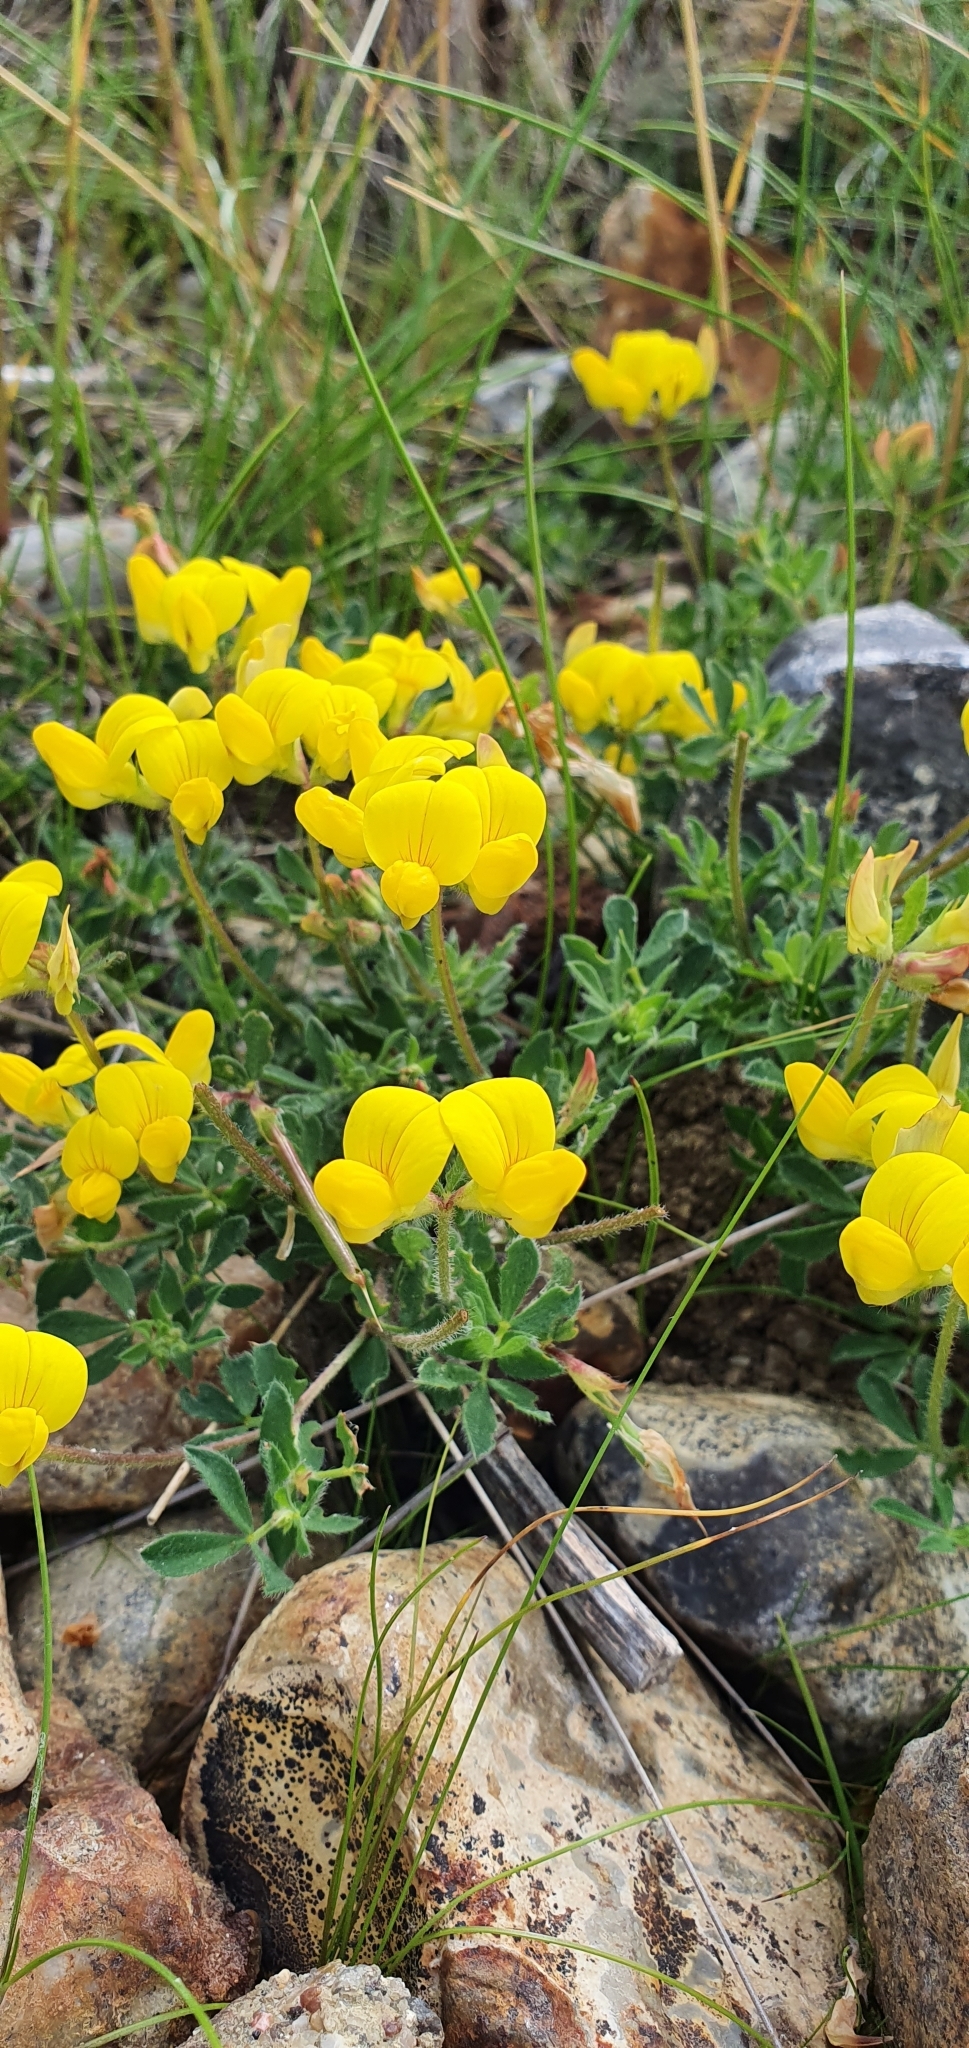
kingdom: Plantae
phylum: Tracheophyta
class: Magnoliopsida
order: Fabales
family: Fabaceae
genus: Lotus
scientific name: Lotus corniculatus
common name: Common bird's-foot-trefoil
